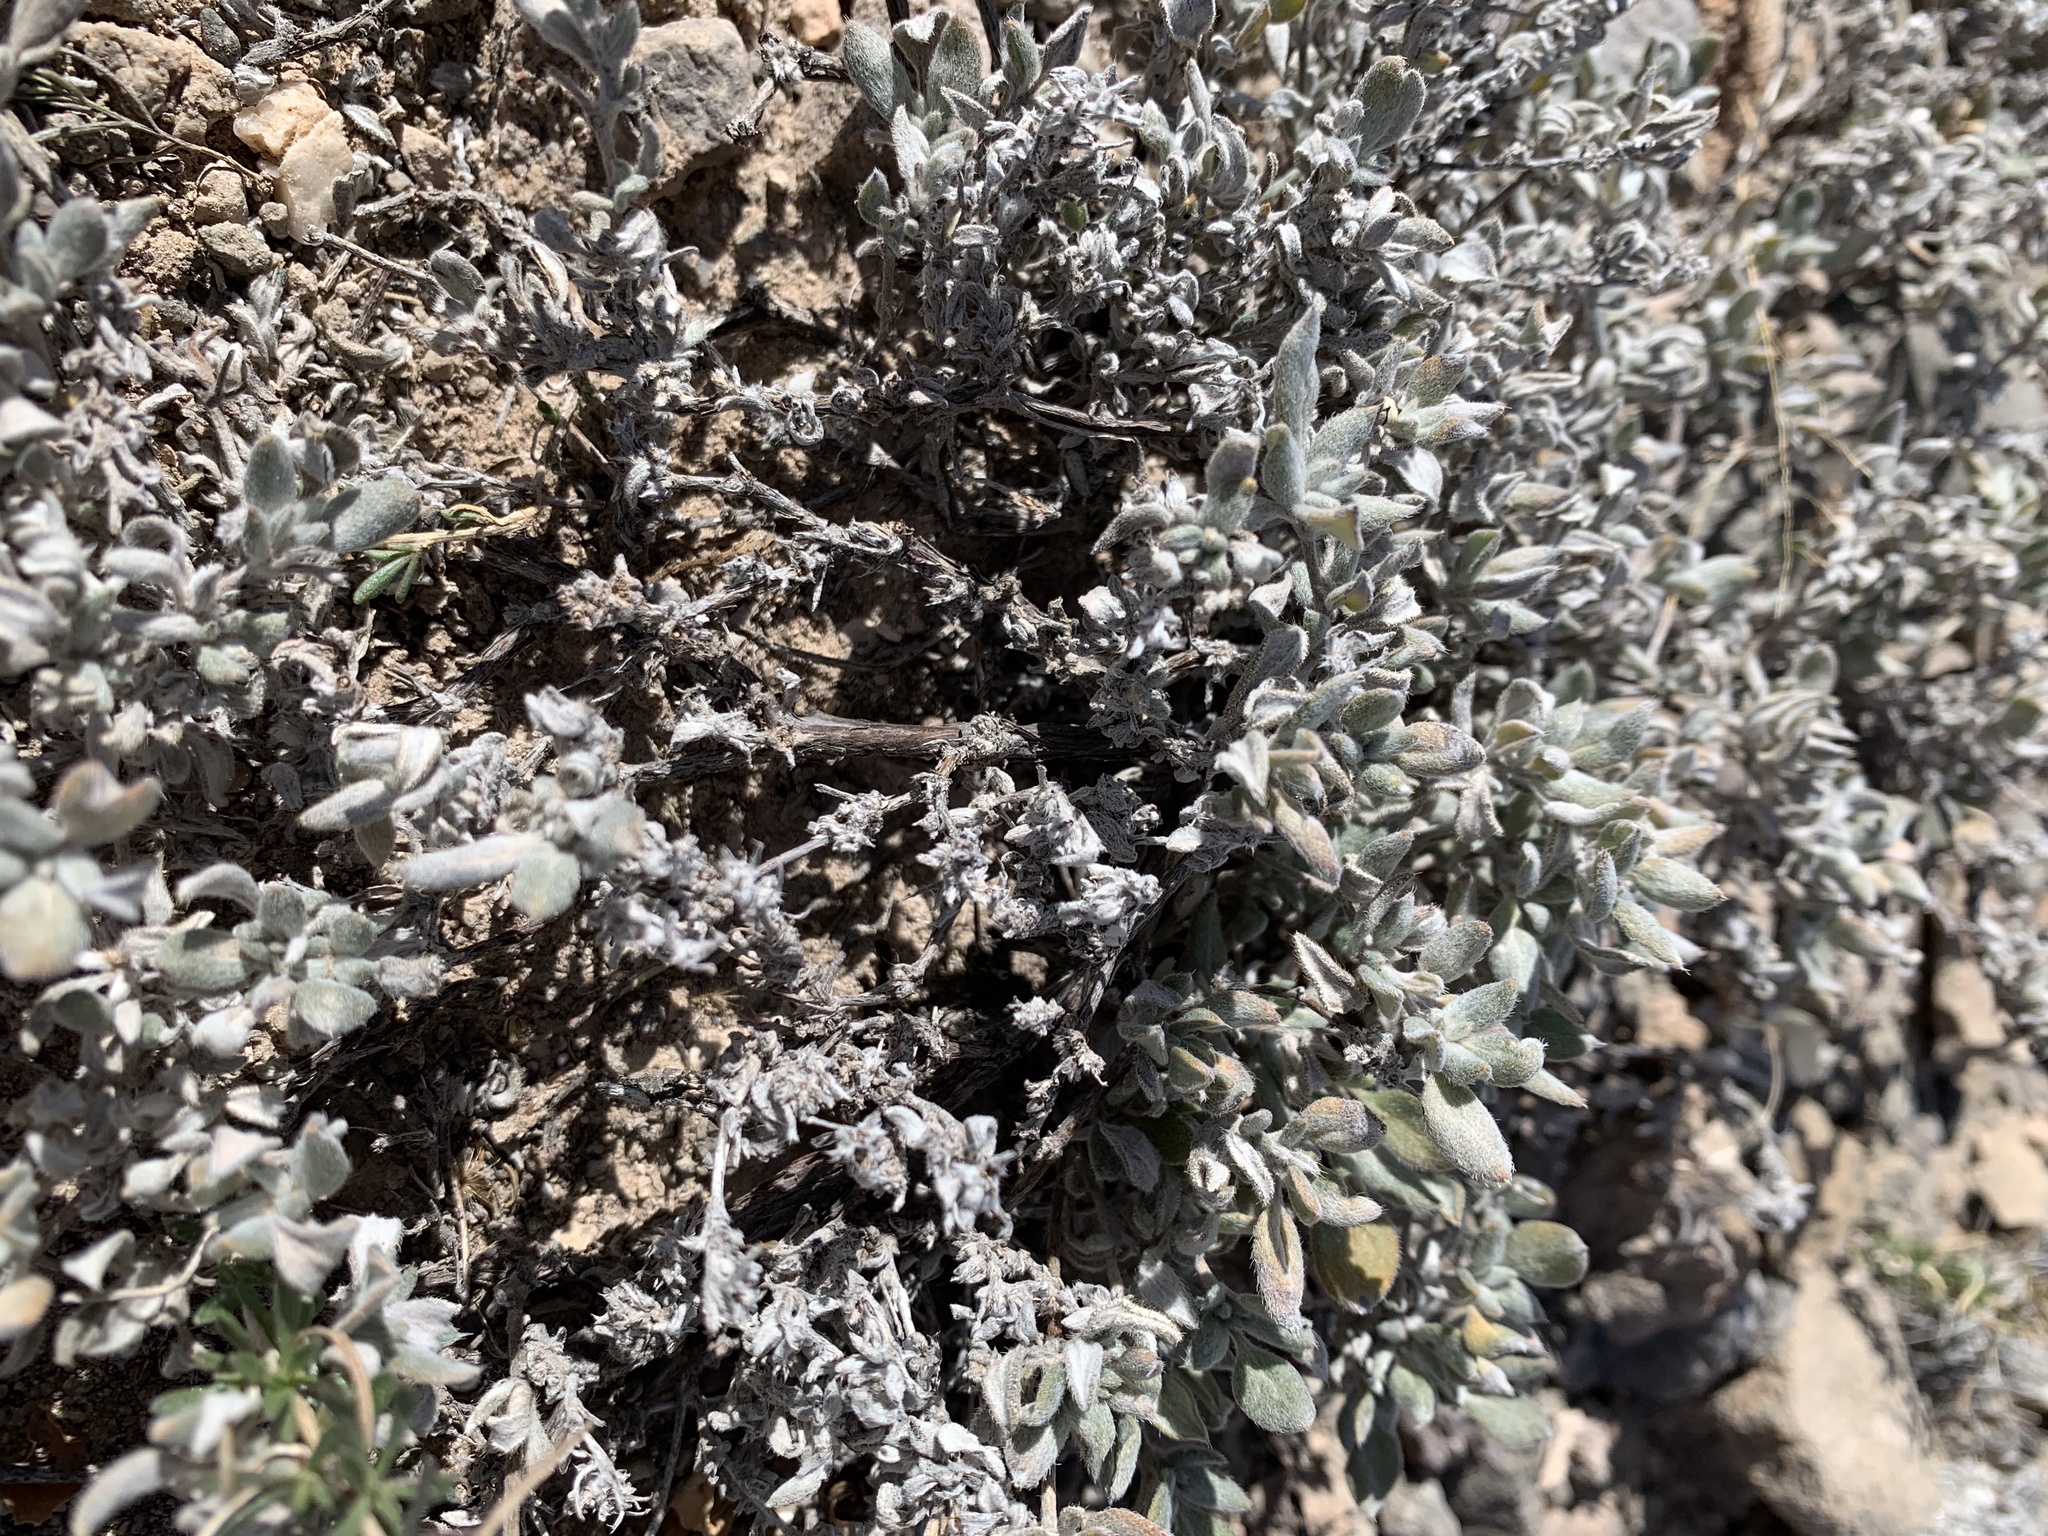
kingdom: Plantae
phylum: Tracheophyta
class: Magnoliopsida
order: Boraginales
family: Ehretiaceae
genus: Tiquilia
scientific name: Tiquilia canescens
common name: Hairy tiquilia
